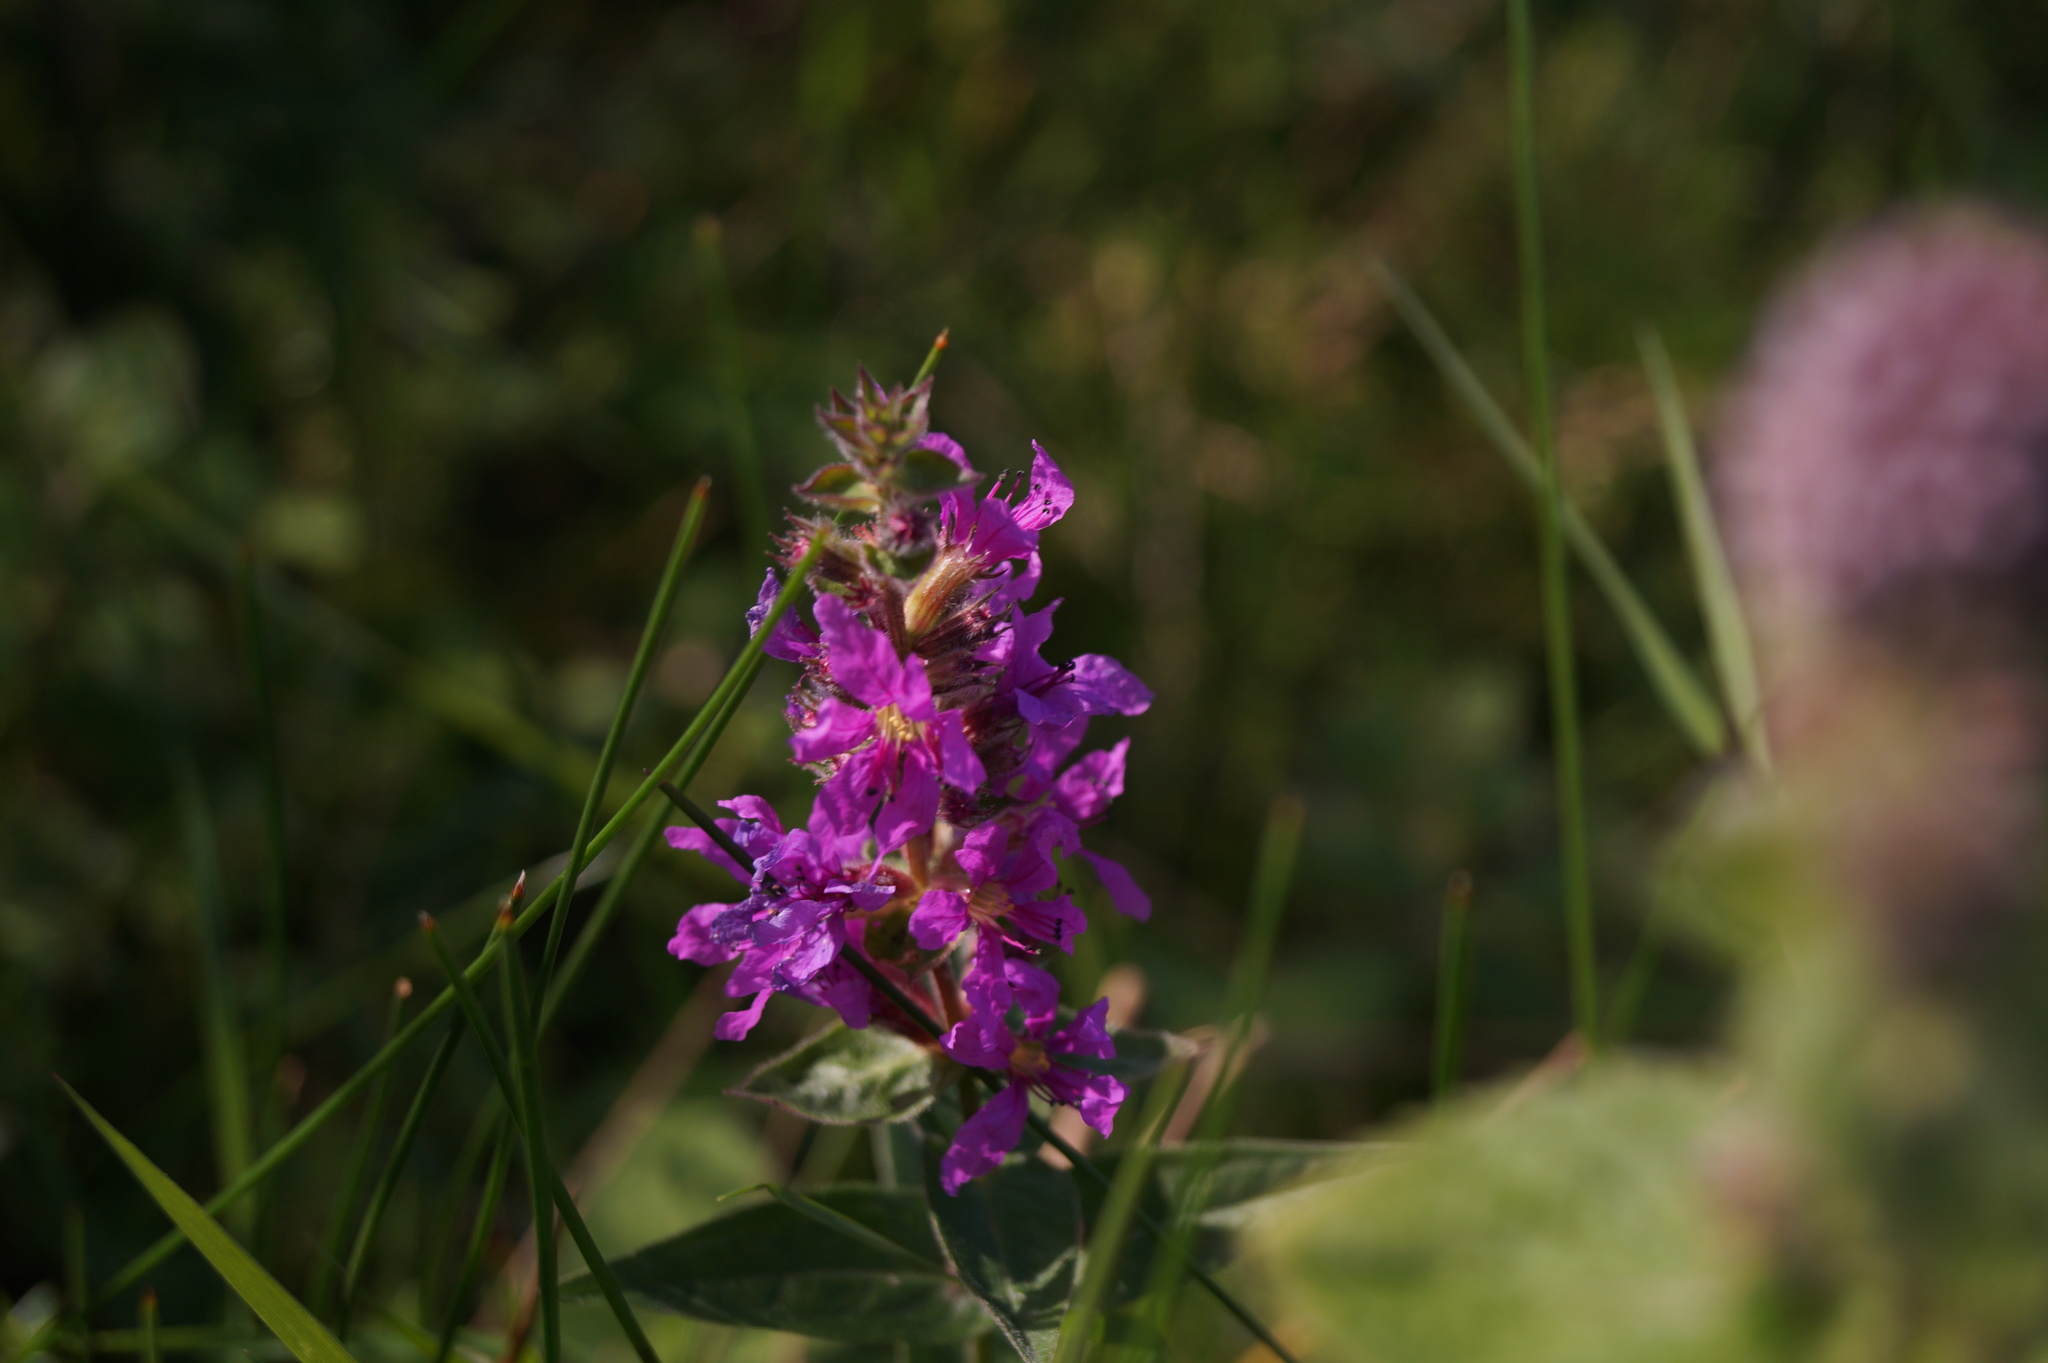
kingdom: Plantae
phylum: Tracheophyta
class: Magnoliopsida
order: Myrtales
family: Lythraceae
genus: Lythrum
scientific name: Lythrum salicaria
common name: Purple loosestrife
